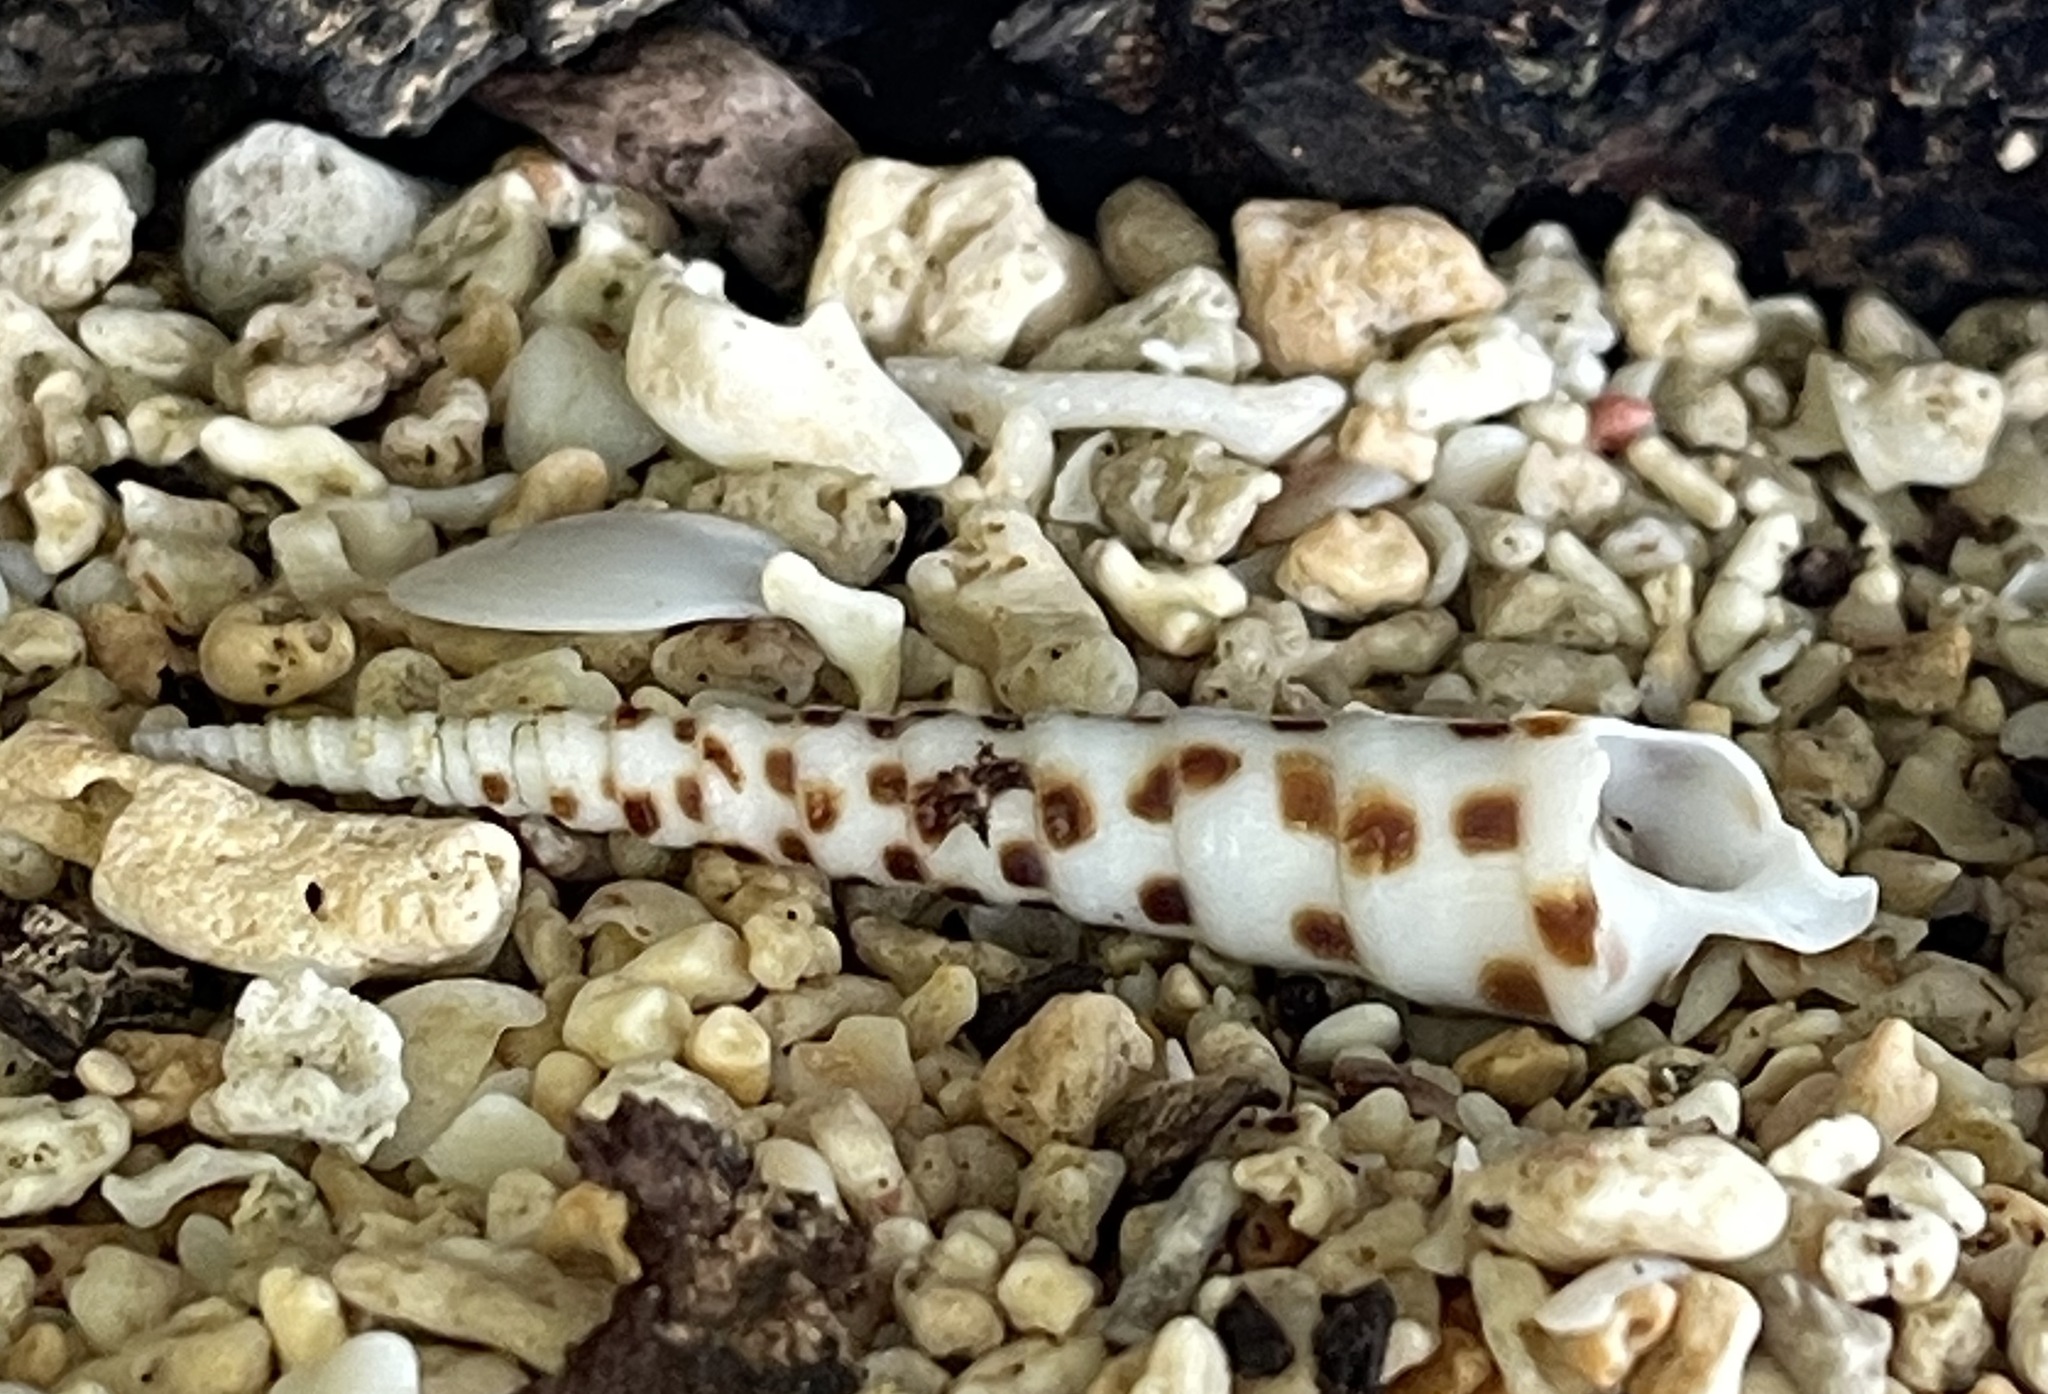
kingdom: Animalia
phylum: Mollusca
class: Gastropoda
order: Neogastropoda
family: Terebridae
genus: Terebra
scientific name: Terebra subulata
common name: Chocolate spotted auger
